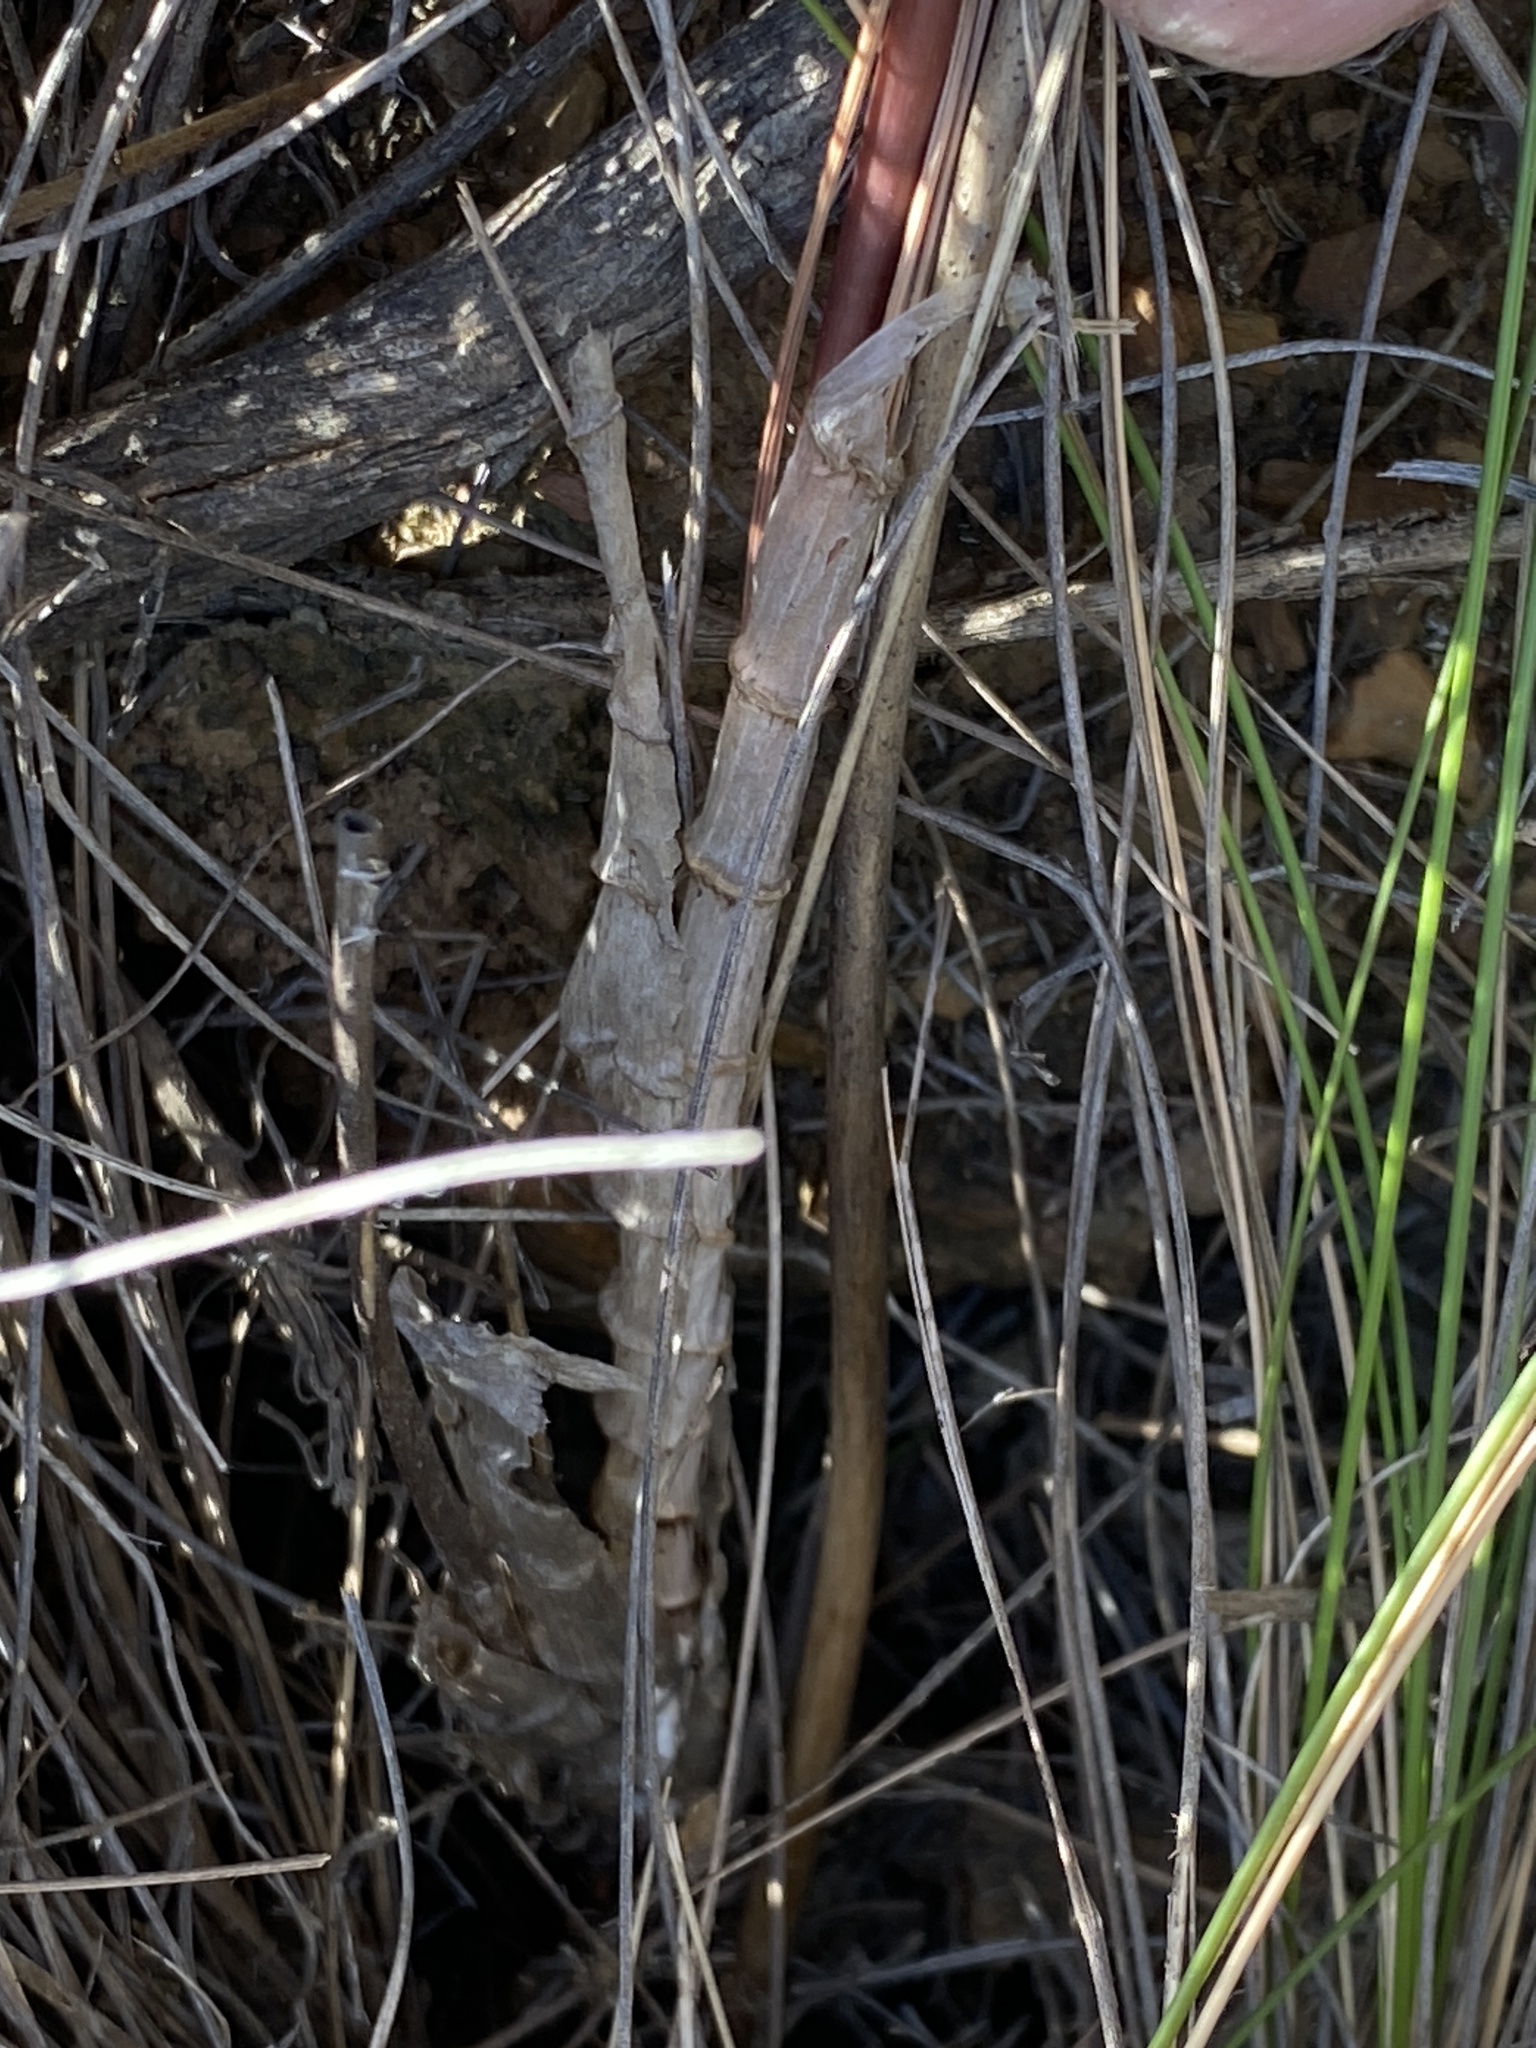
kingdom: Plantae
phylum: Tracheophyta
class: Liliopsida
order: Asparagales
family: Asparagaceae
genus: Drimia
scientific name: Drimia exuviata
